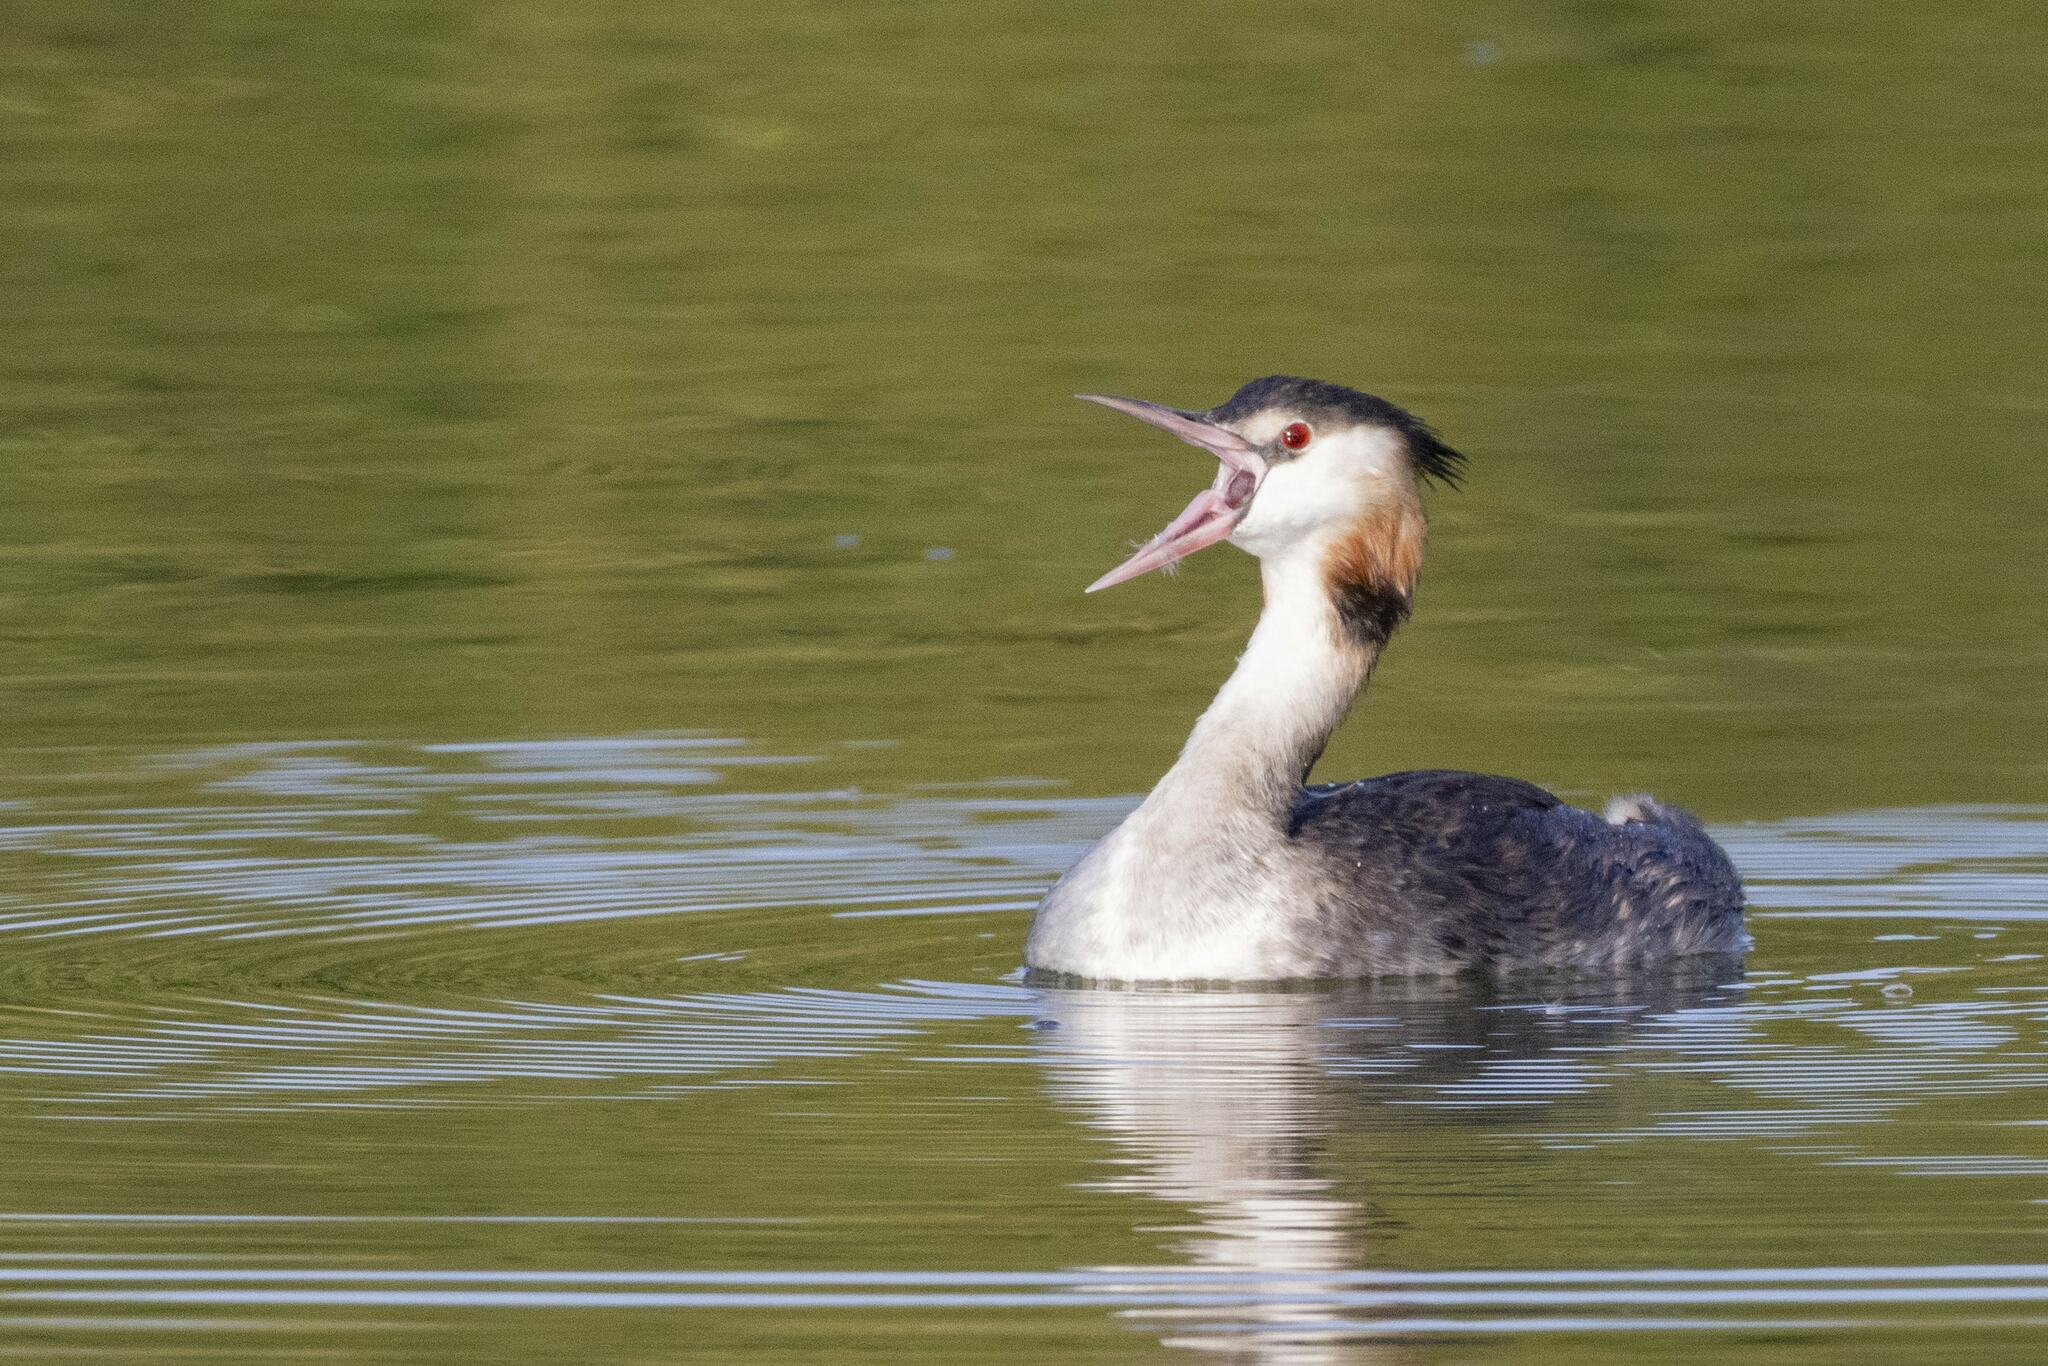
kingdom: Animalia
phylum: Chordata
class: Aves
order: Podicipediformes
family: Podicipedidae
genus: Podiceps
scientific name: Podiceps cristatus
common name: Great crested grebe
